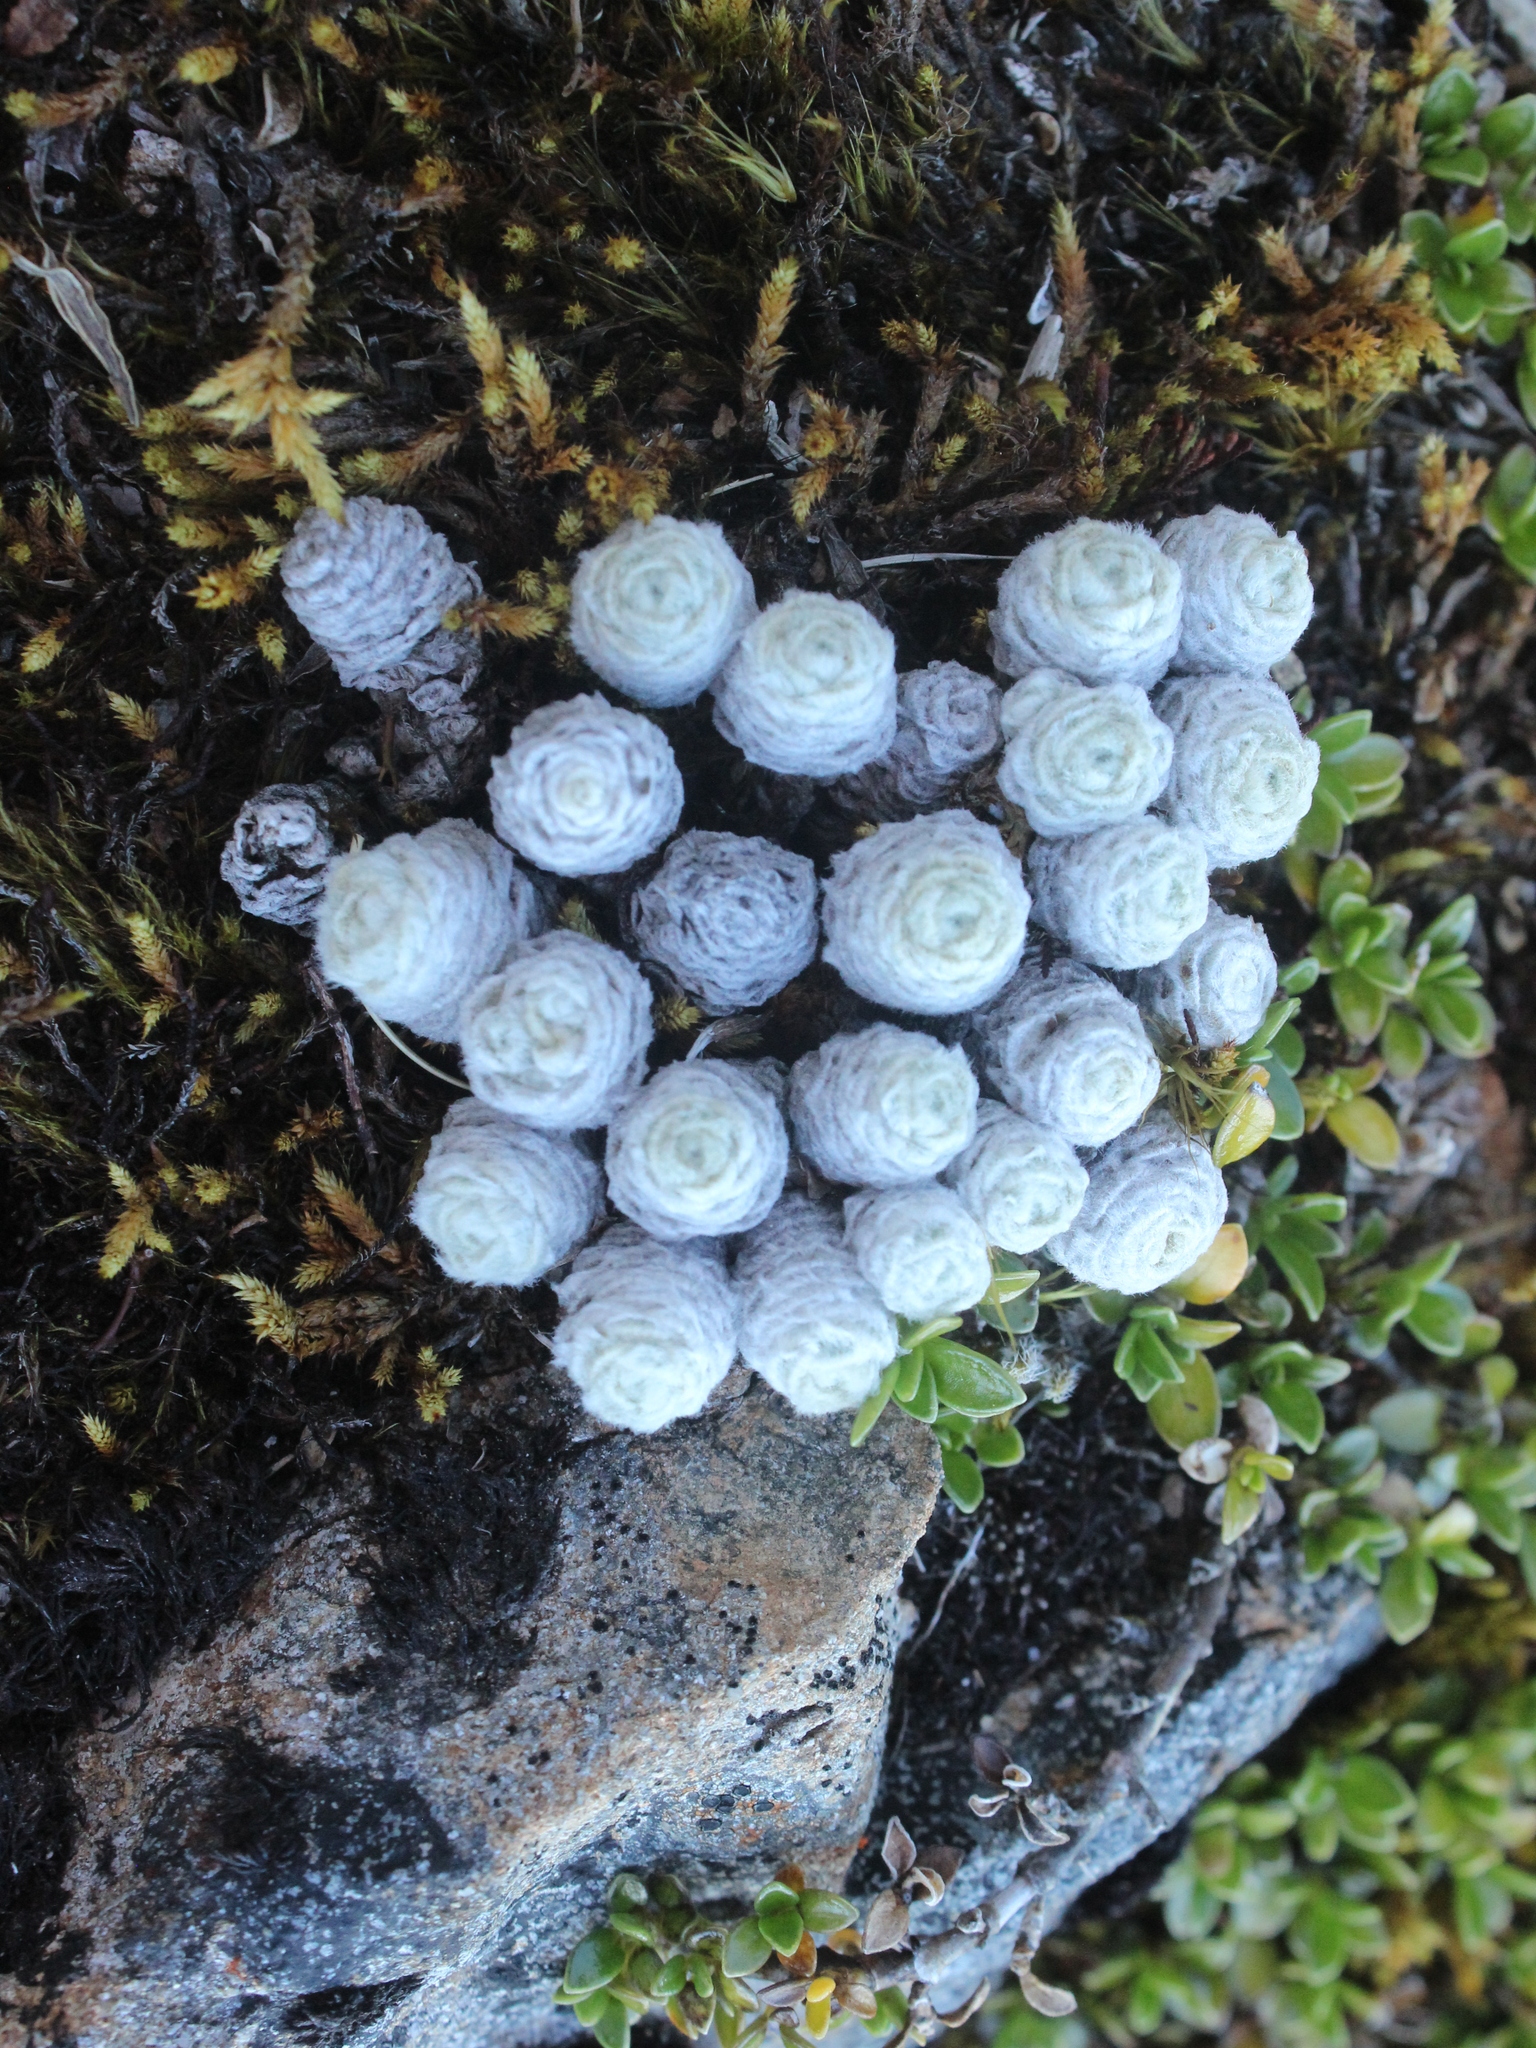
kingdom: Plantae
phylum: Tracheophyta
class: Magnoliopsida
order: Asterales
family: Asteraceae
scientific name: Asteraceae
